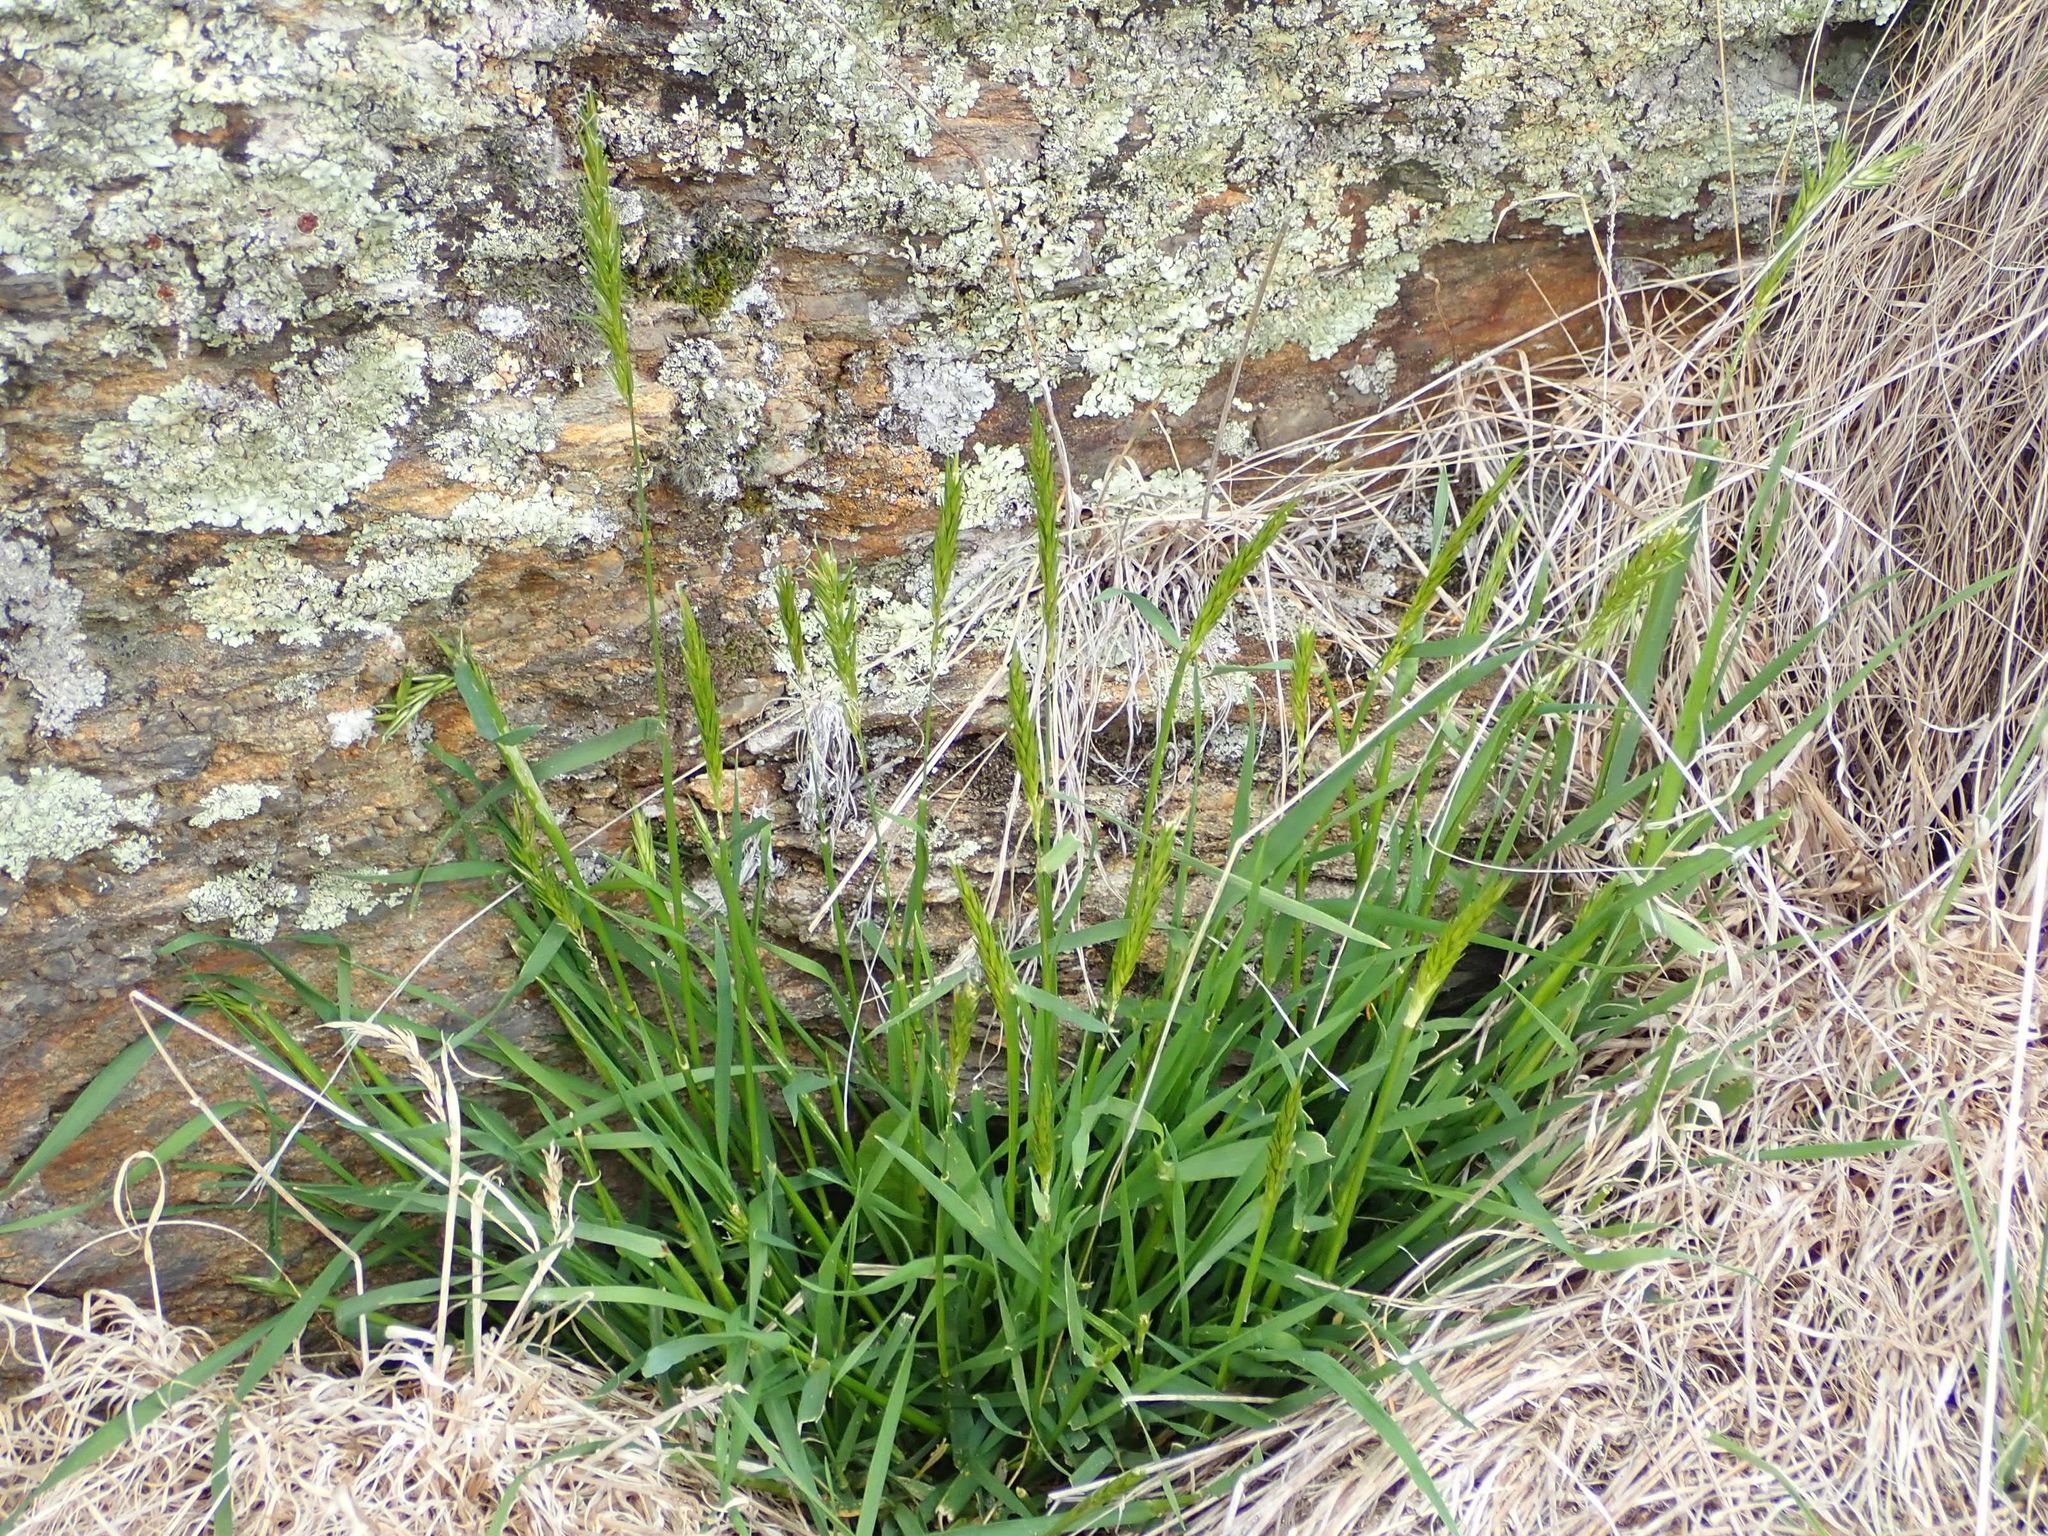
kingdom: Plantae
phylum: Tracheophyta
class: Liliopsida
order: Poales
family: Poaceae
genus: Anthoxanthum
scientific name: Anthoxanthum odoratum
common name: Sweet vernalgrass
